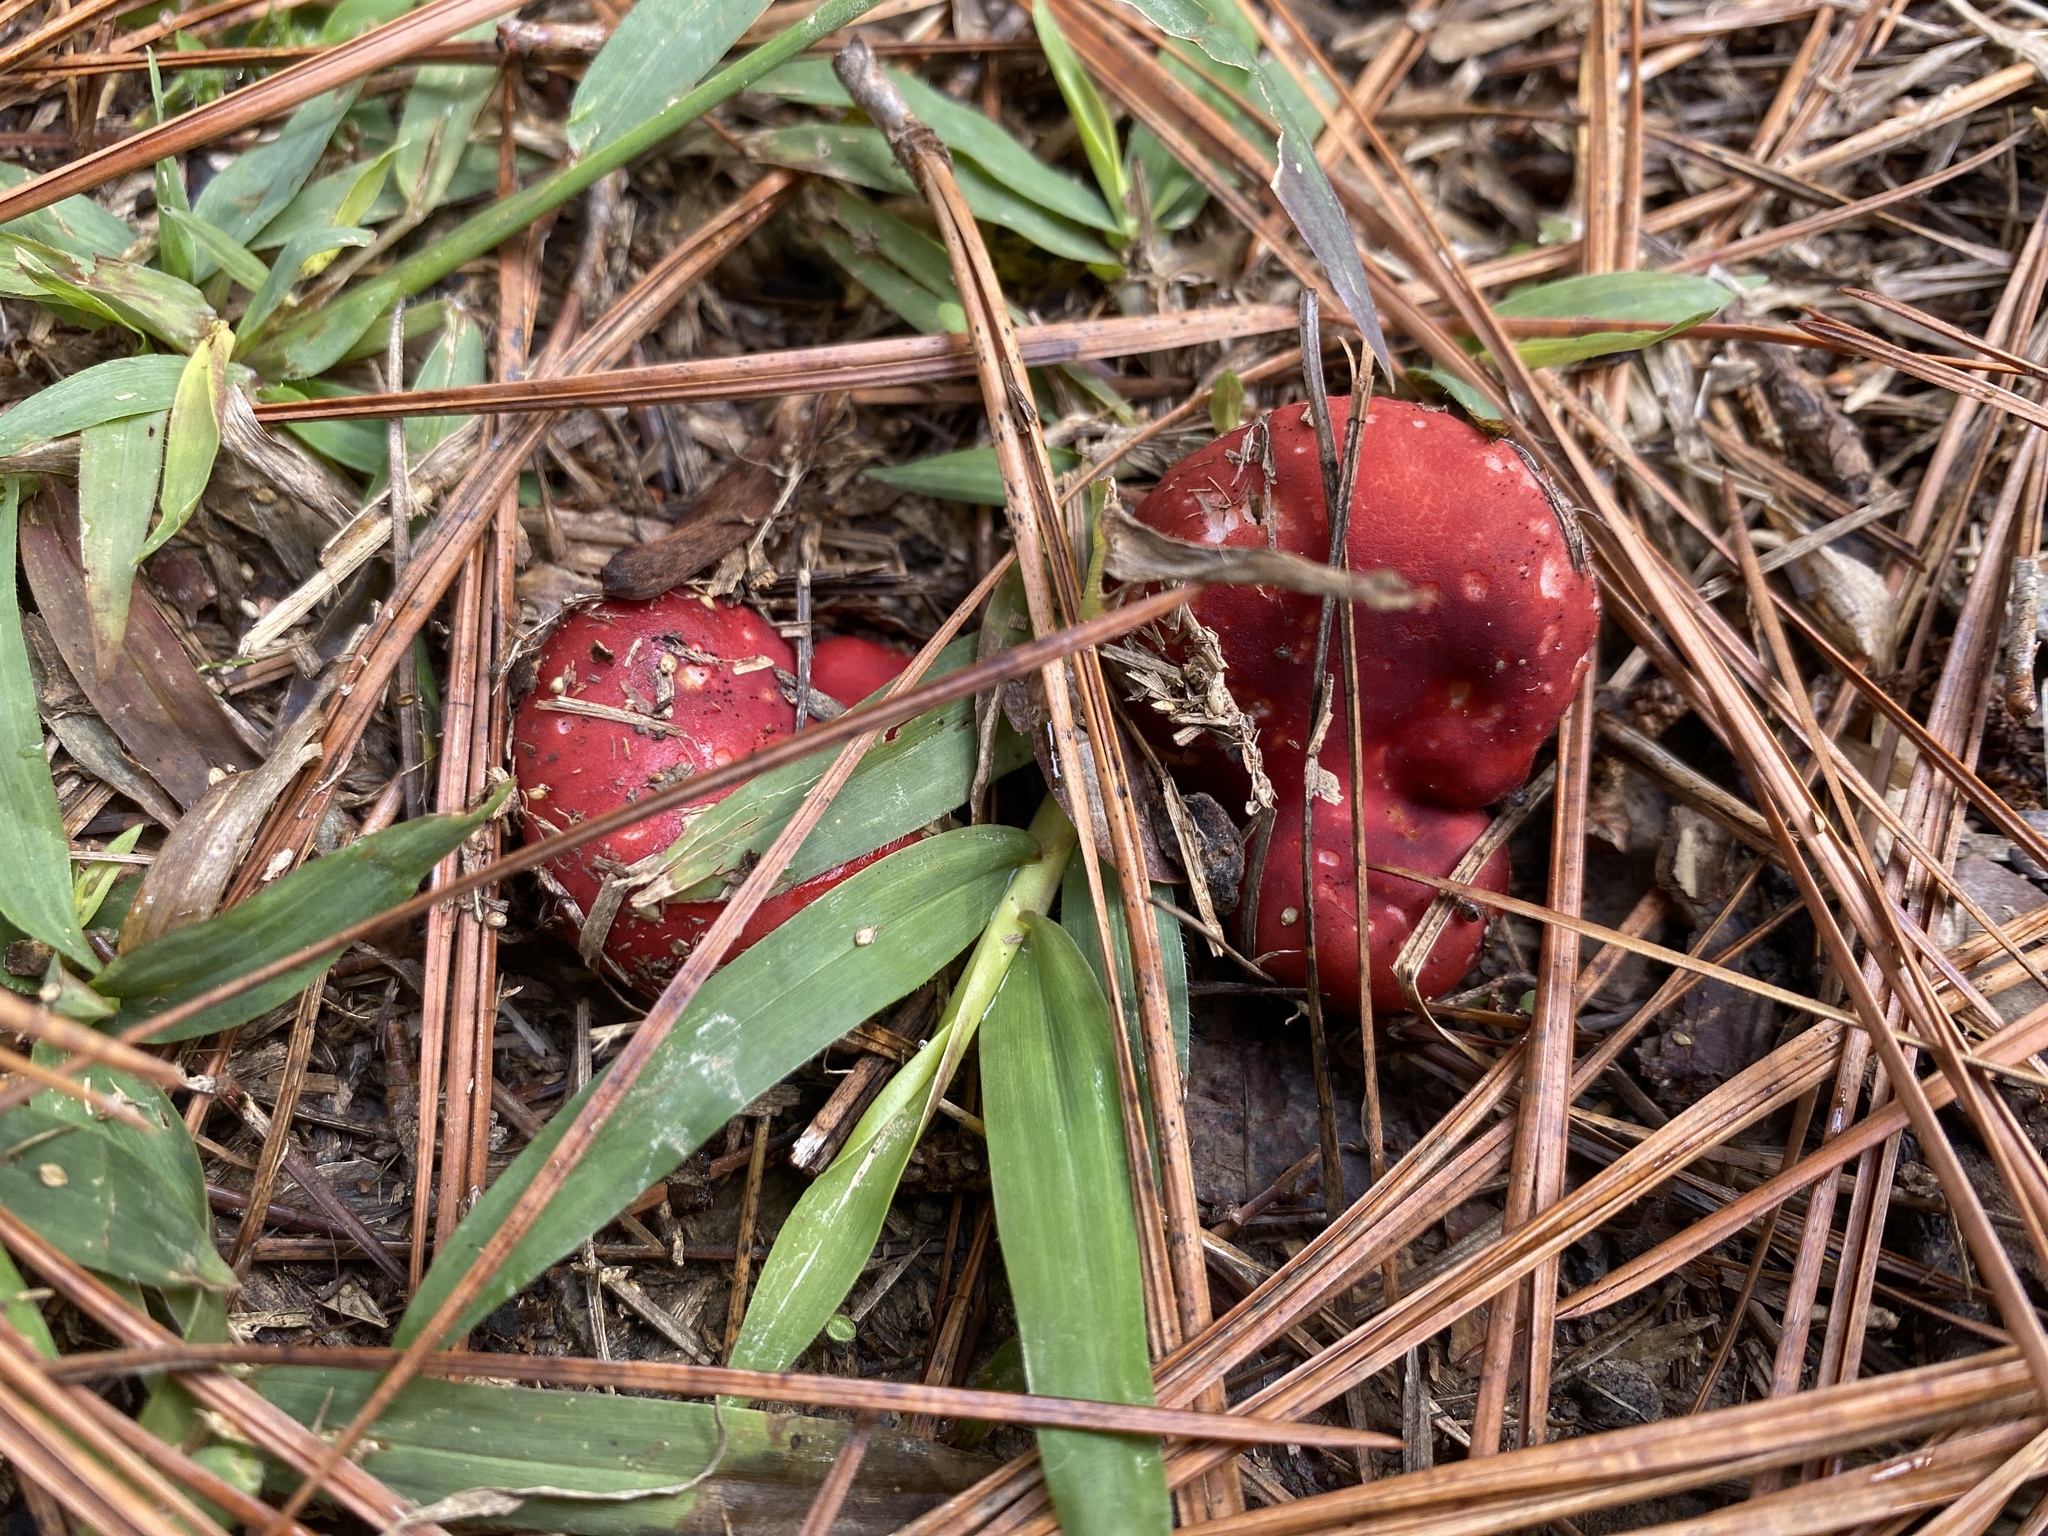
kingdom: Fungi
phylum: Basidiomycota
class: Agaricomycetes
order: Russulales
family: Russulaceae
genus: Russula
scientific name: Russula
